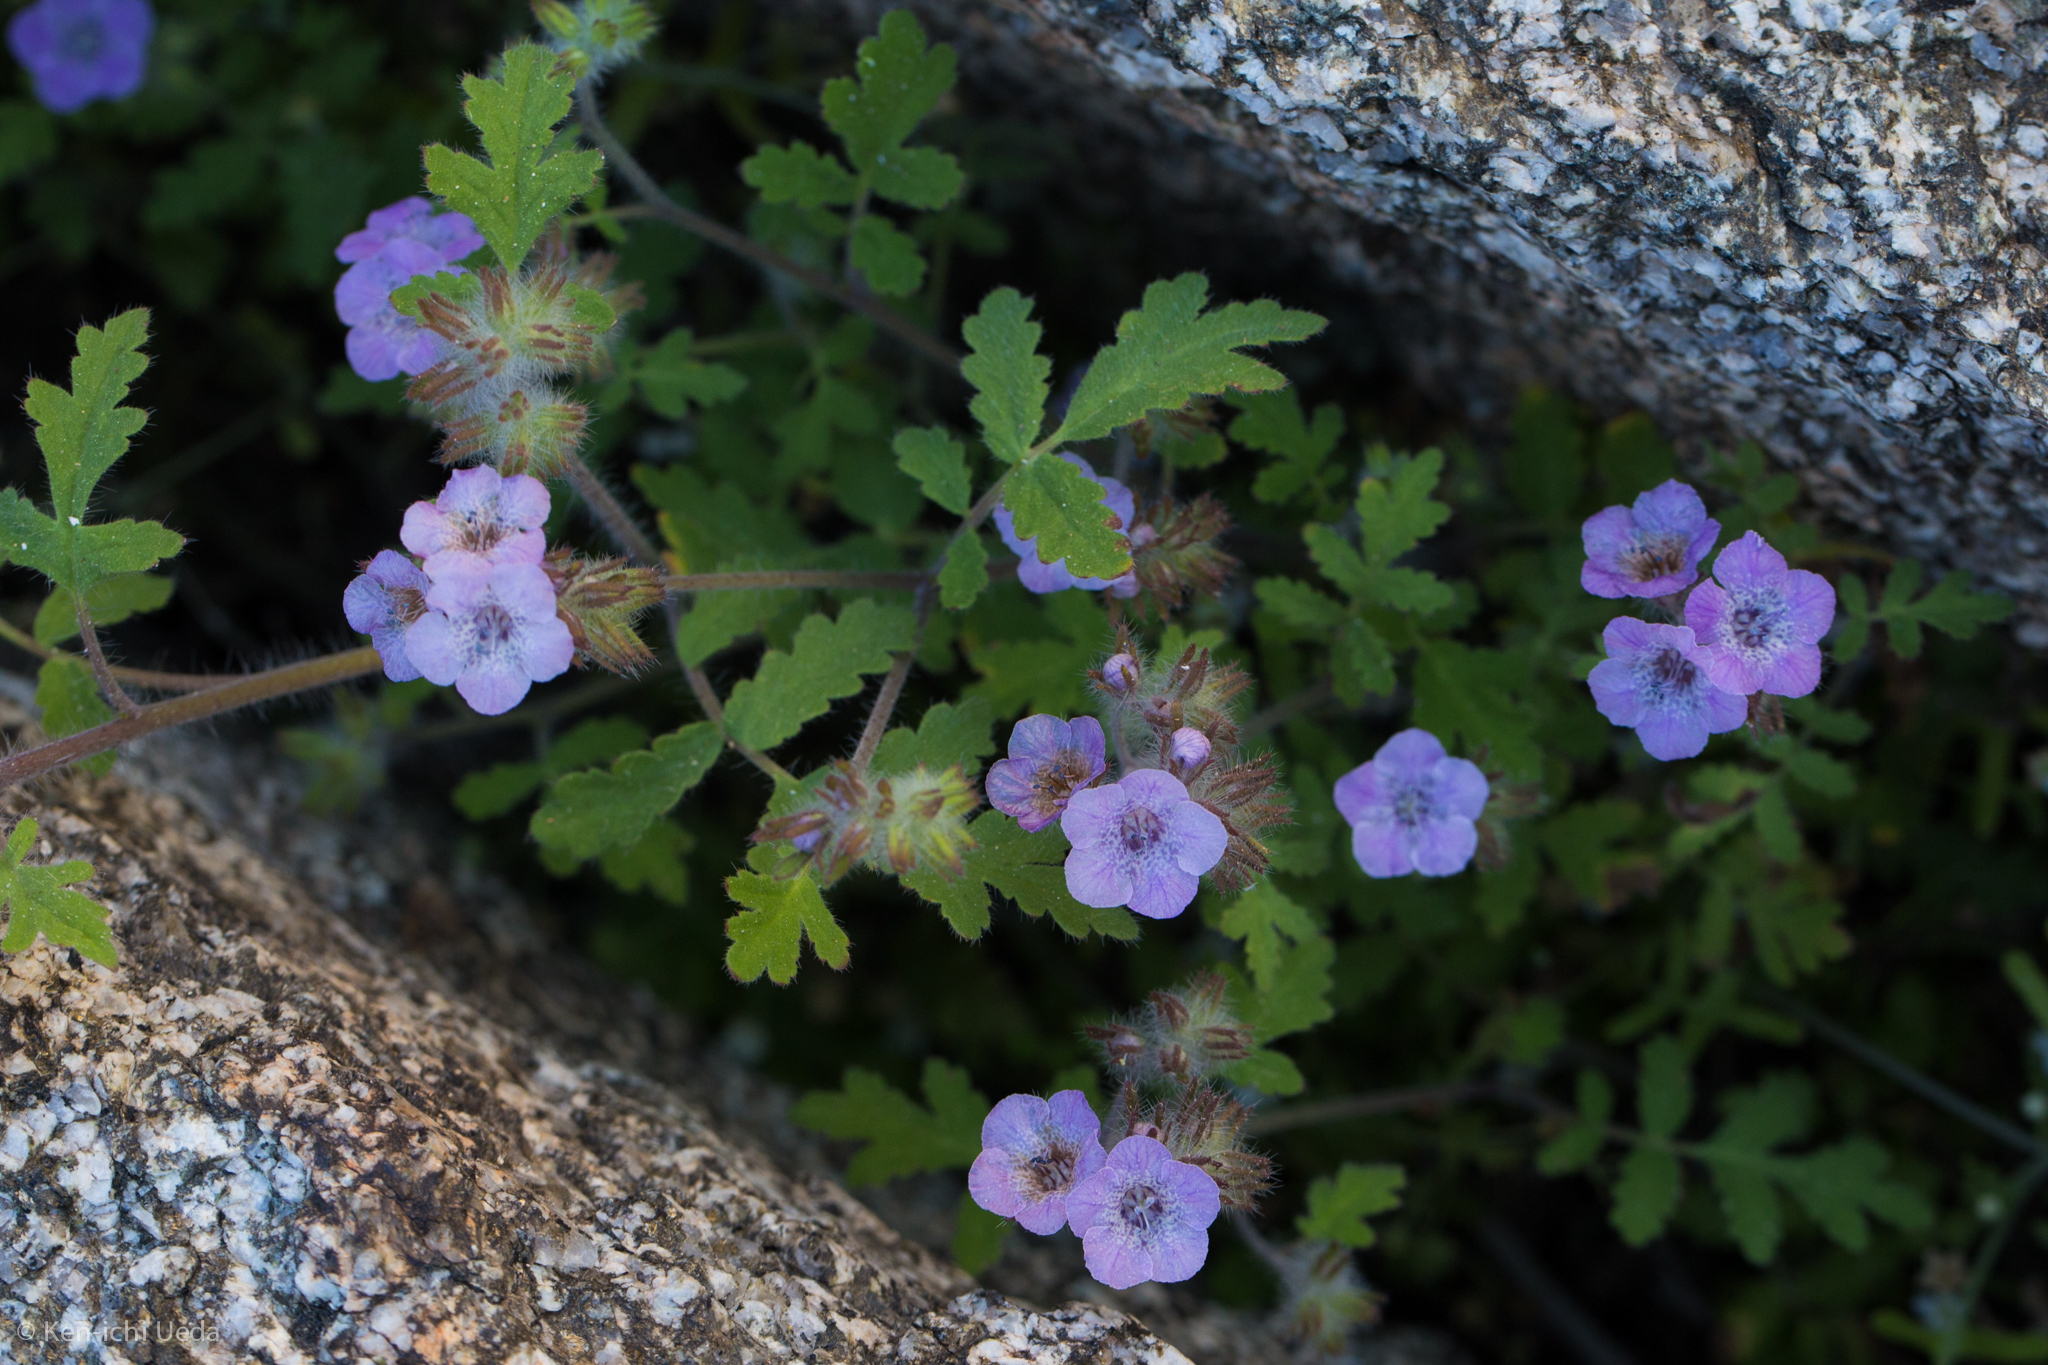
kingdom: Plantae
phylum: Tracheophyta
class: Magnoliopsida
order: Boraginales
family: Hydrophyllaceae
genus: Phacelia
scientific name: Phacelia cicutaria
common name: Caterpillar phacelia
